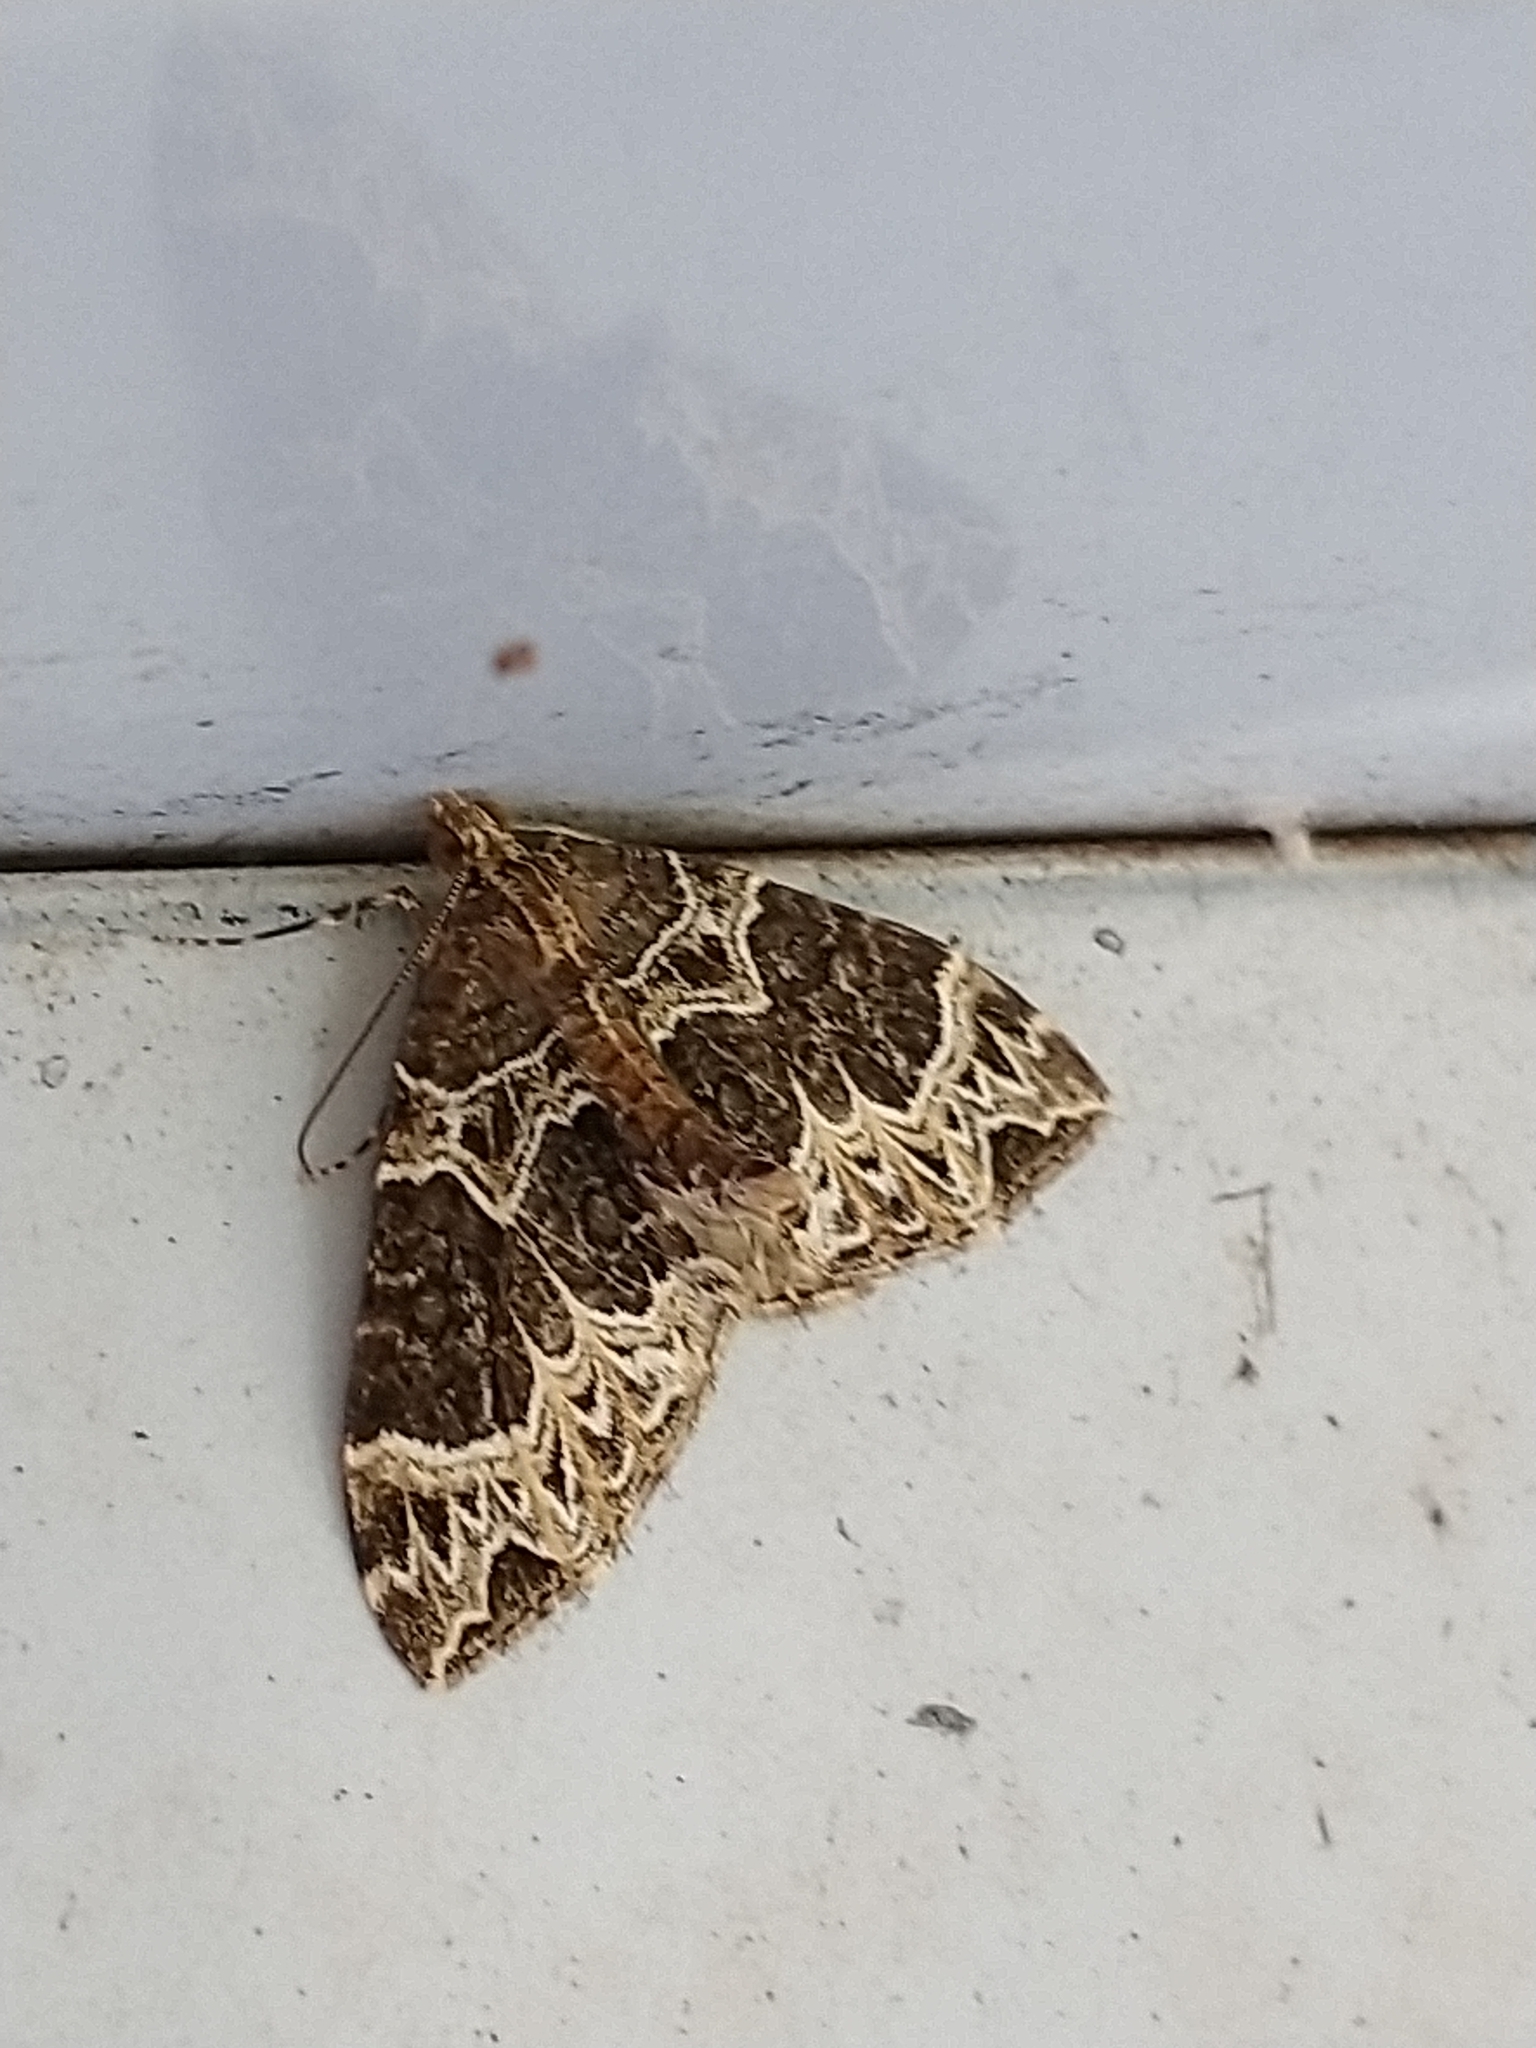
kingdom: Animalia
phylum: Arthropoda
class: Insecta
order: Lepidoptera
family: Geometridae
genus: Ecliptopera
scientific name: Ecliptopera silaceata
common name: Small phoenix
